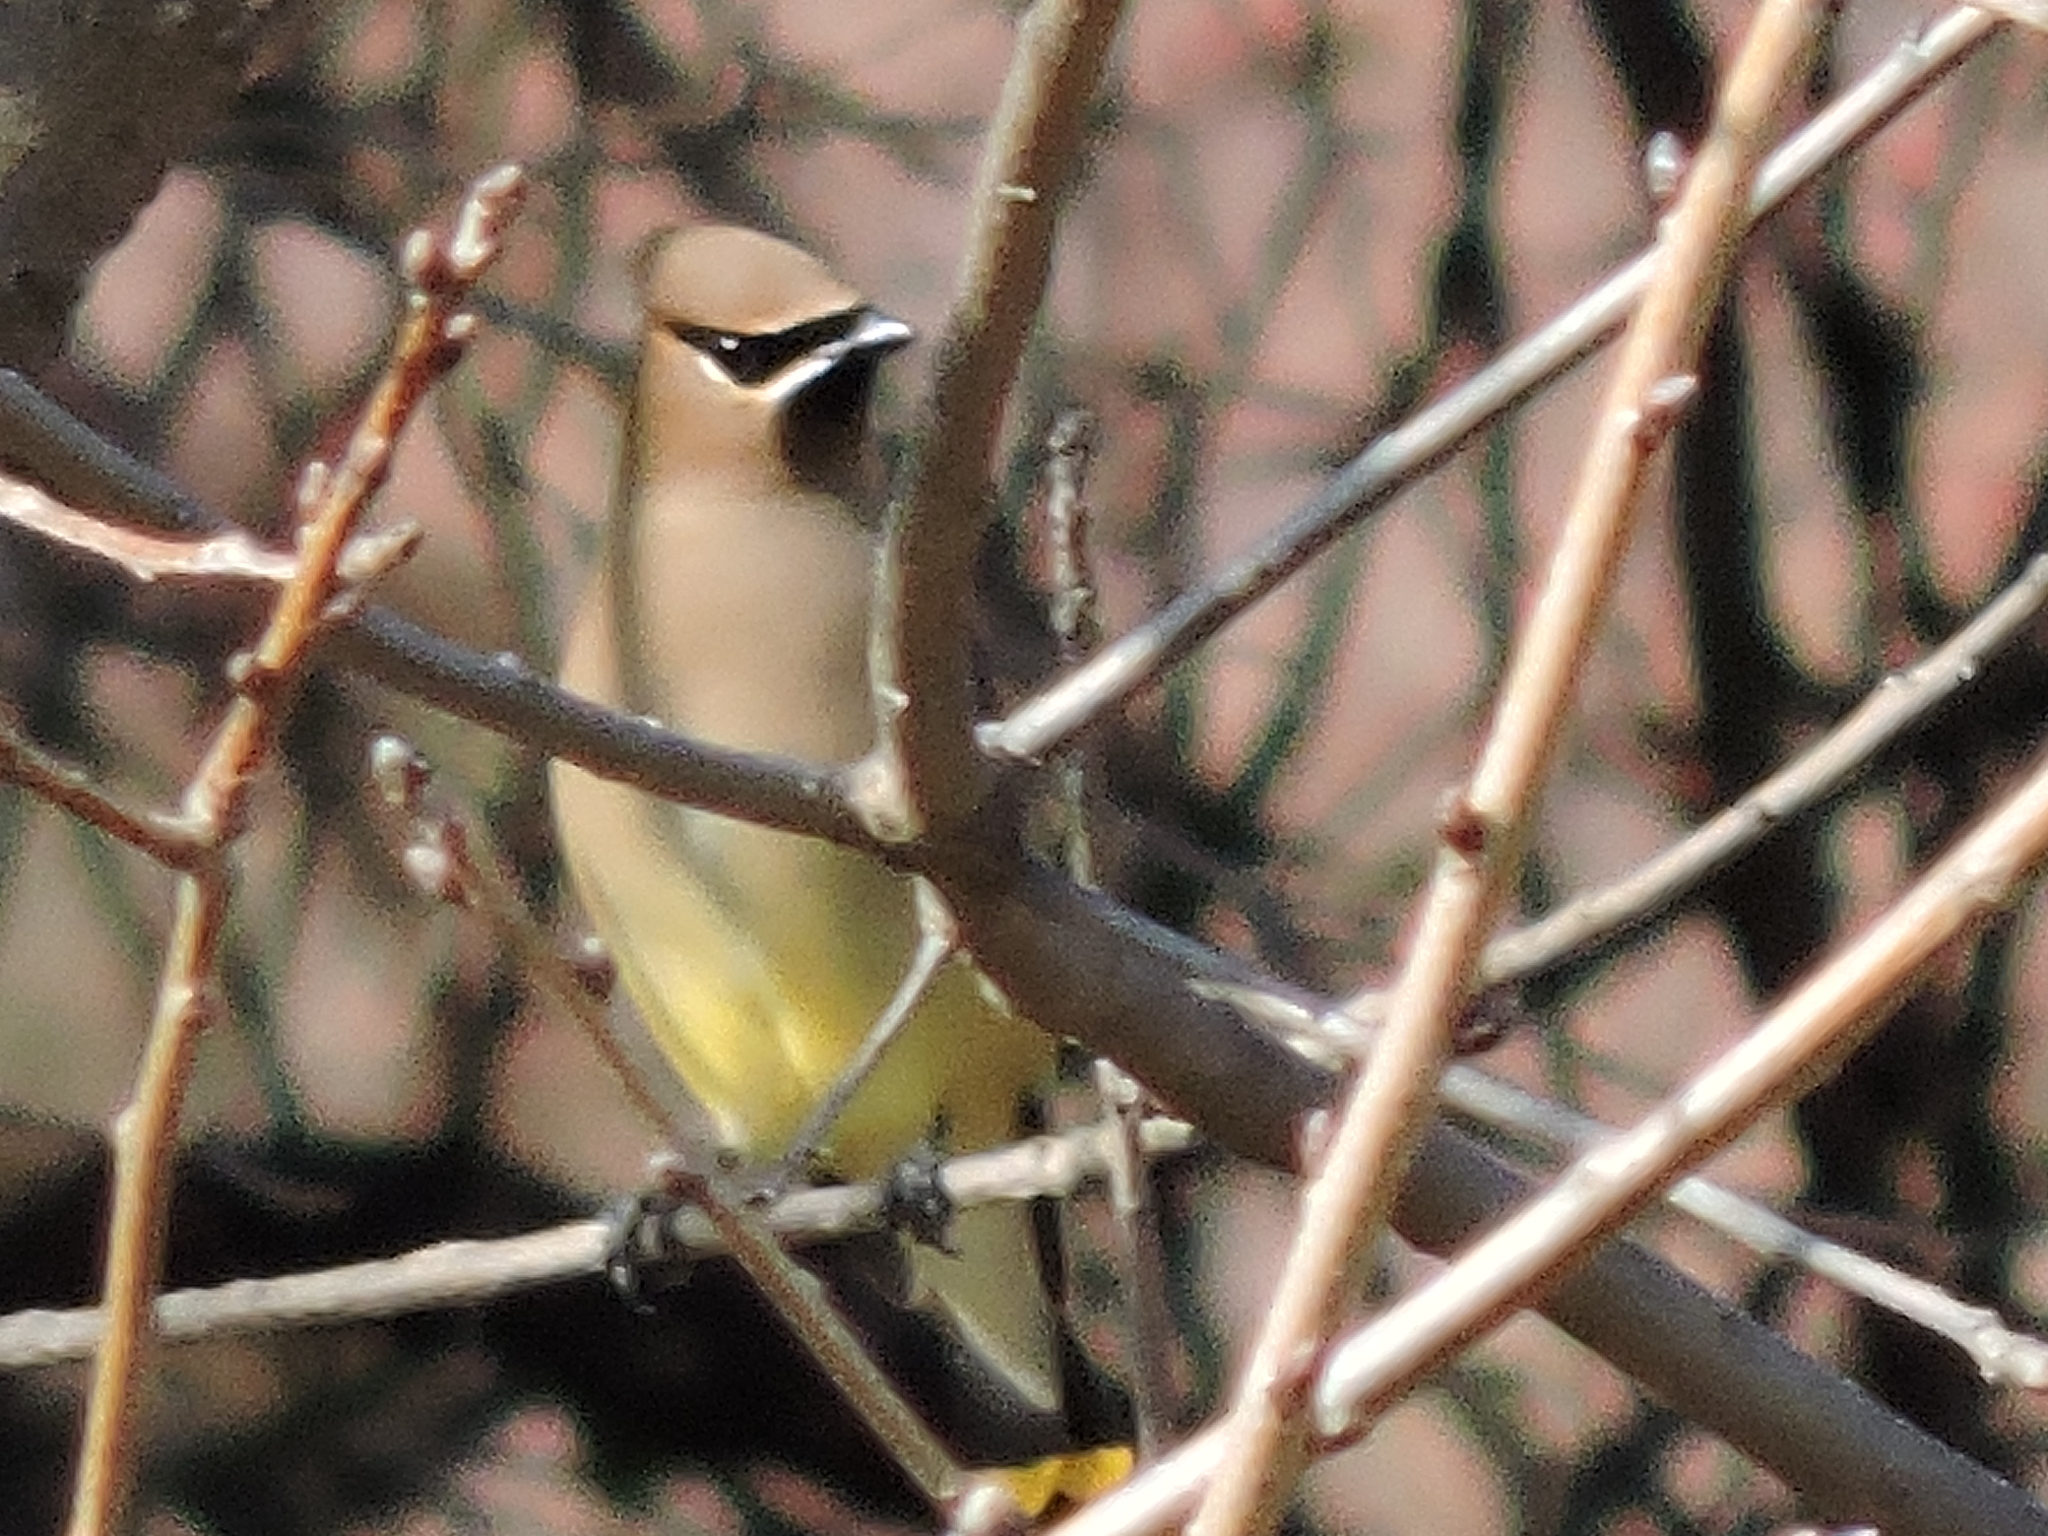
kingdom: Animalia
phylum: Chordata
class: Aves
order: Passeriformes
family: Bombycillidae
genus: Bombycilla
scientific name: Bombycilla cedrorum
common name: Cedar waxwing
